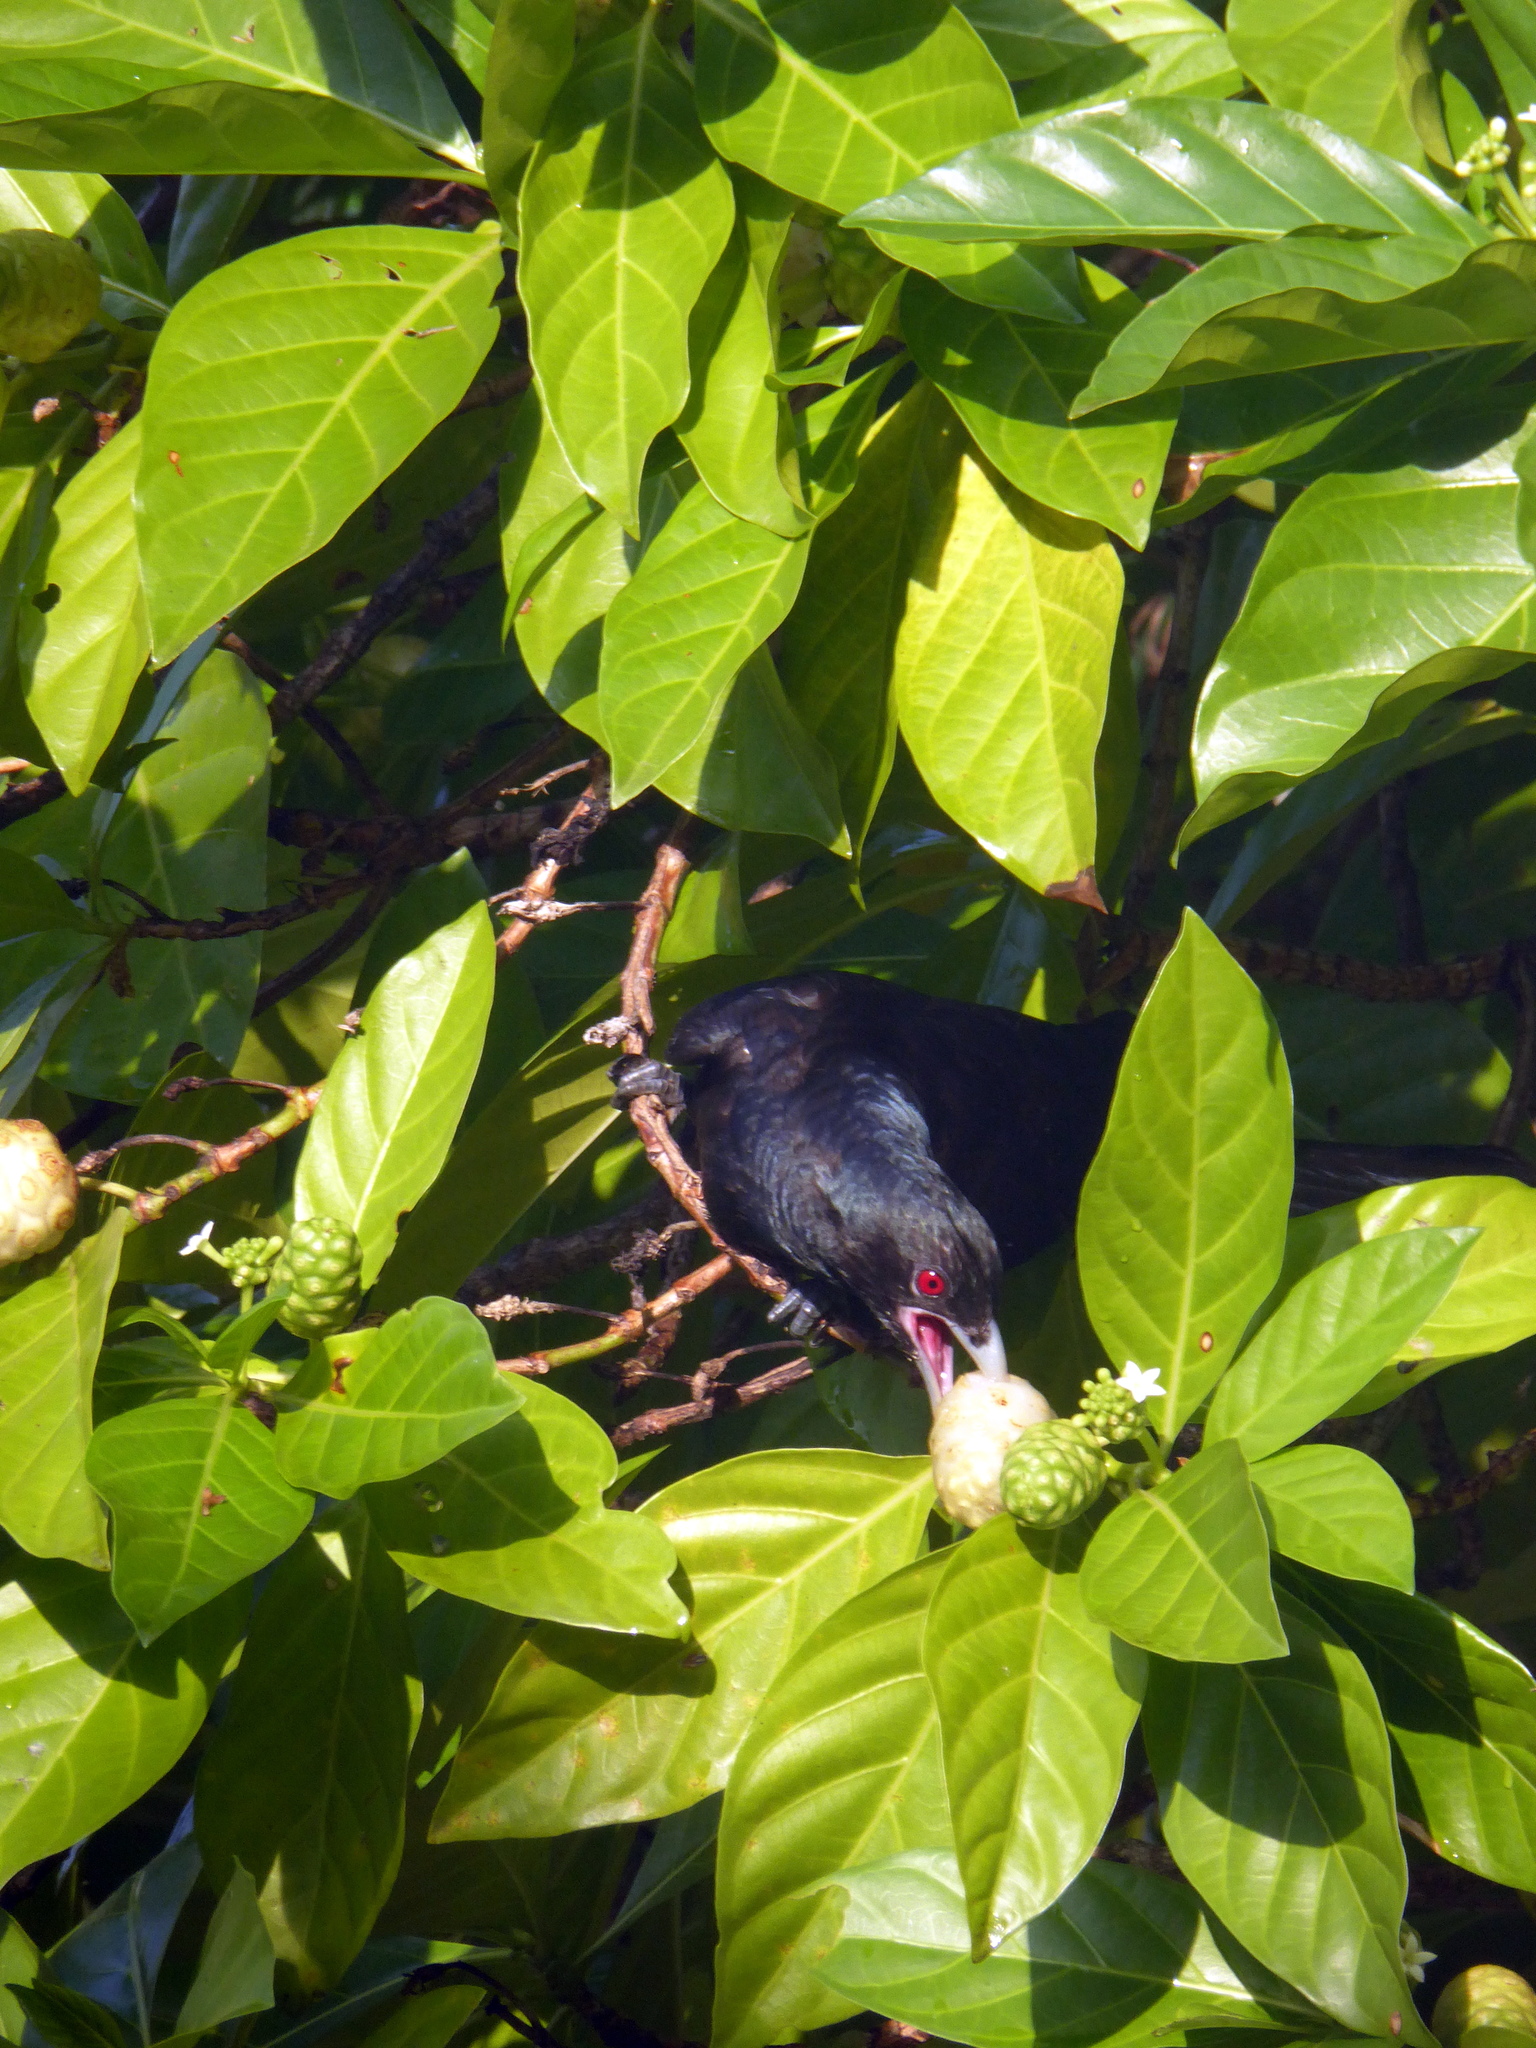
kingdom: Animalia
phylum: Chordata
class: Aves
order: Cuculiformes
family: Cuculidae
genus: Eudynamys
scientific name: Eudynamys scolopaceus
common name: Asian koel
